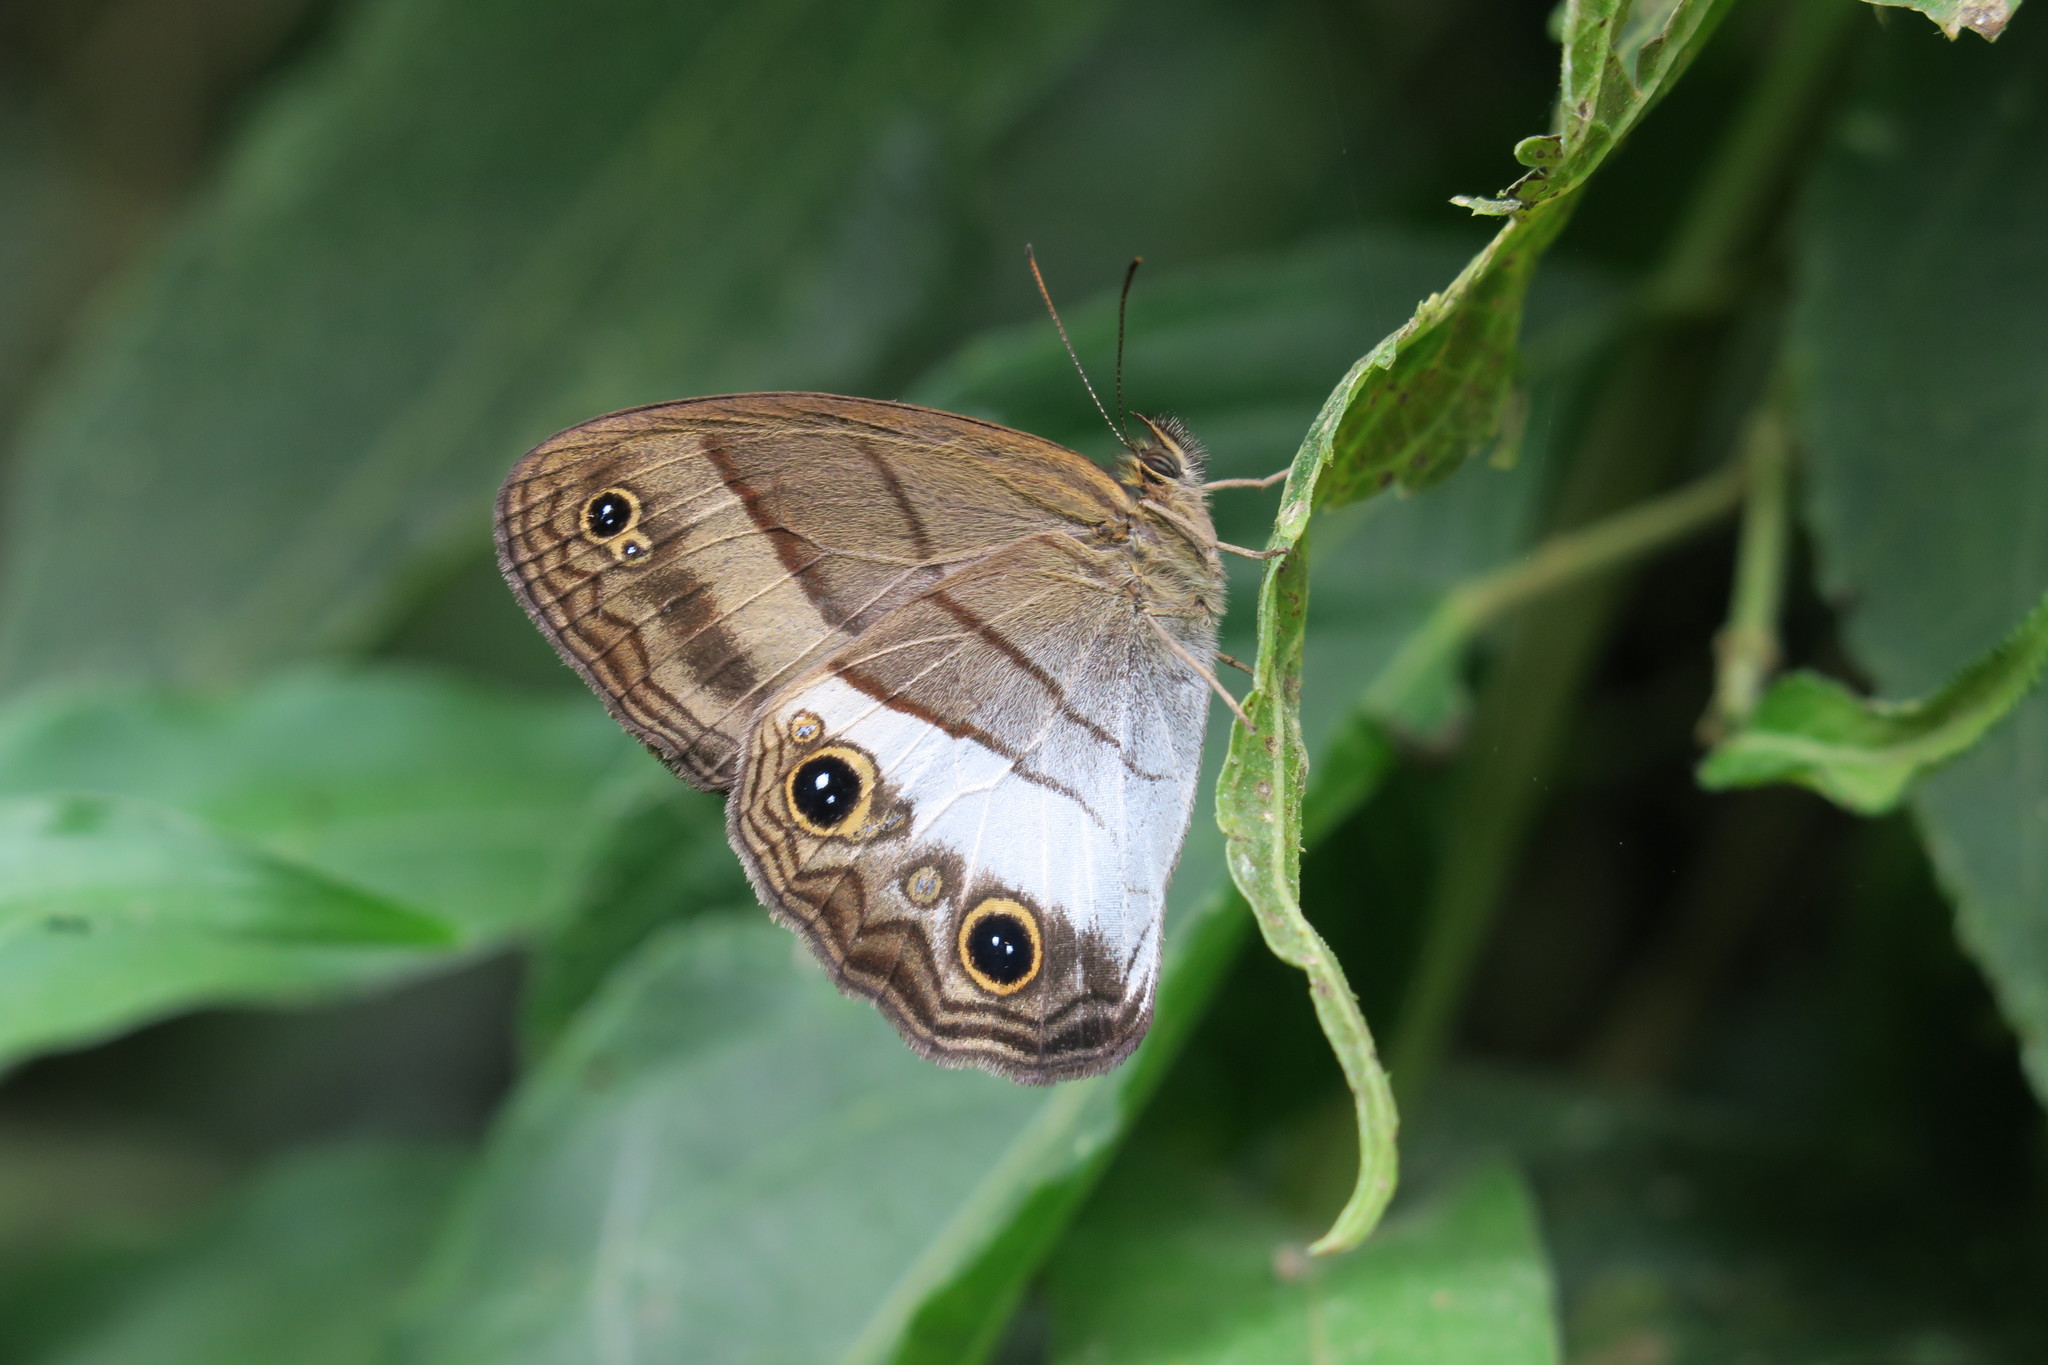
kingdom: Animalia
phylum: Arthropoda
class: Insecta
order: Lepidoptera
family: Nymphalidae
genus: Colombeia
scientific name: Colombeia
